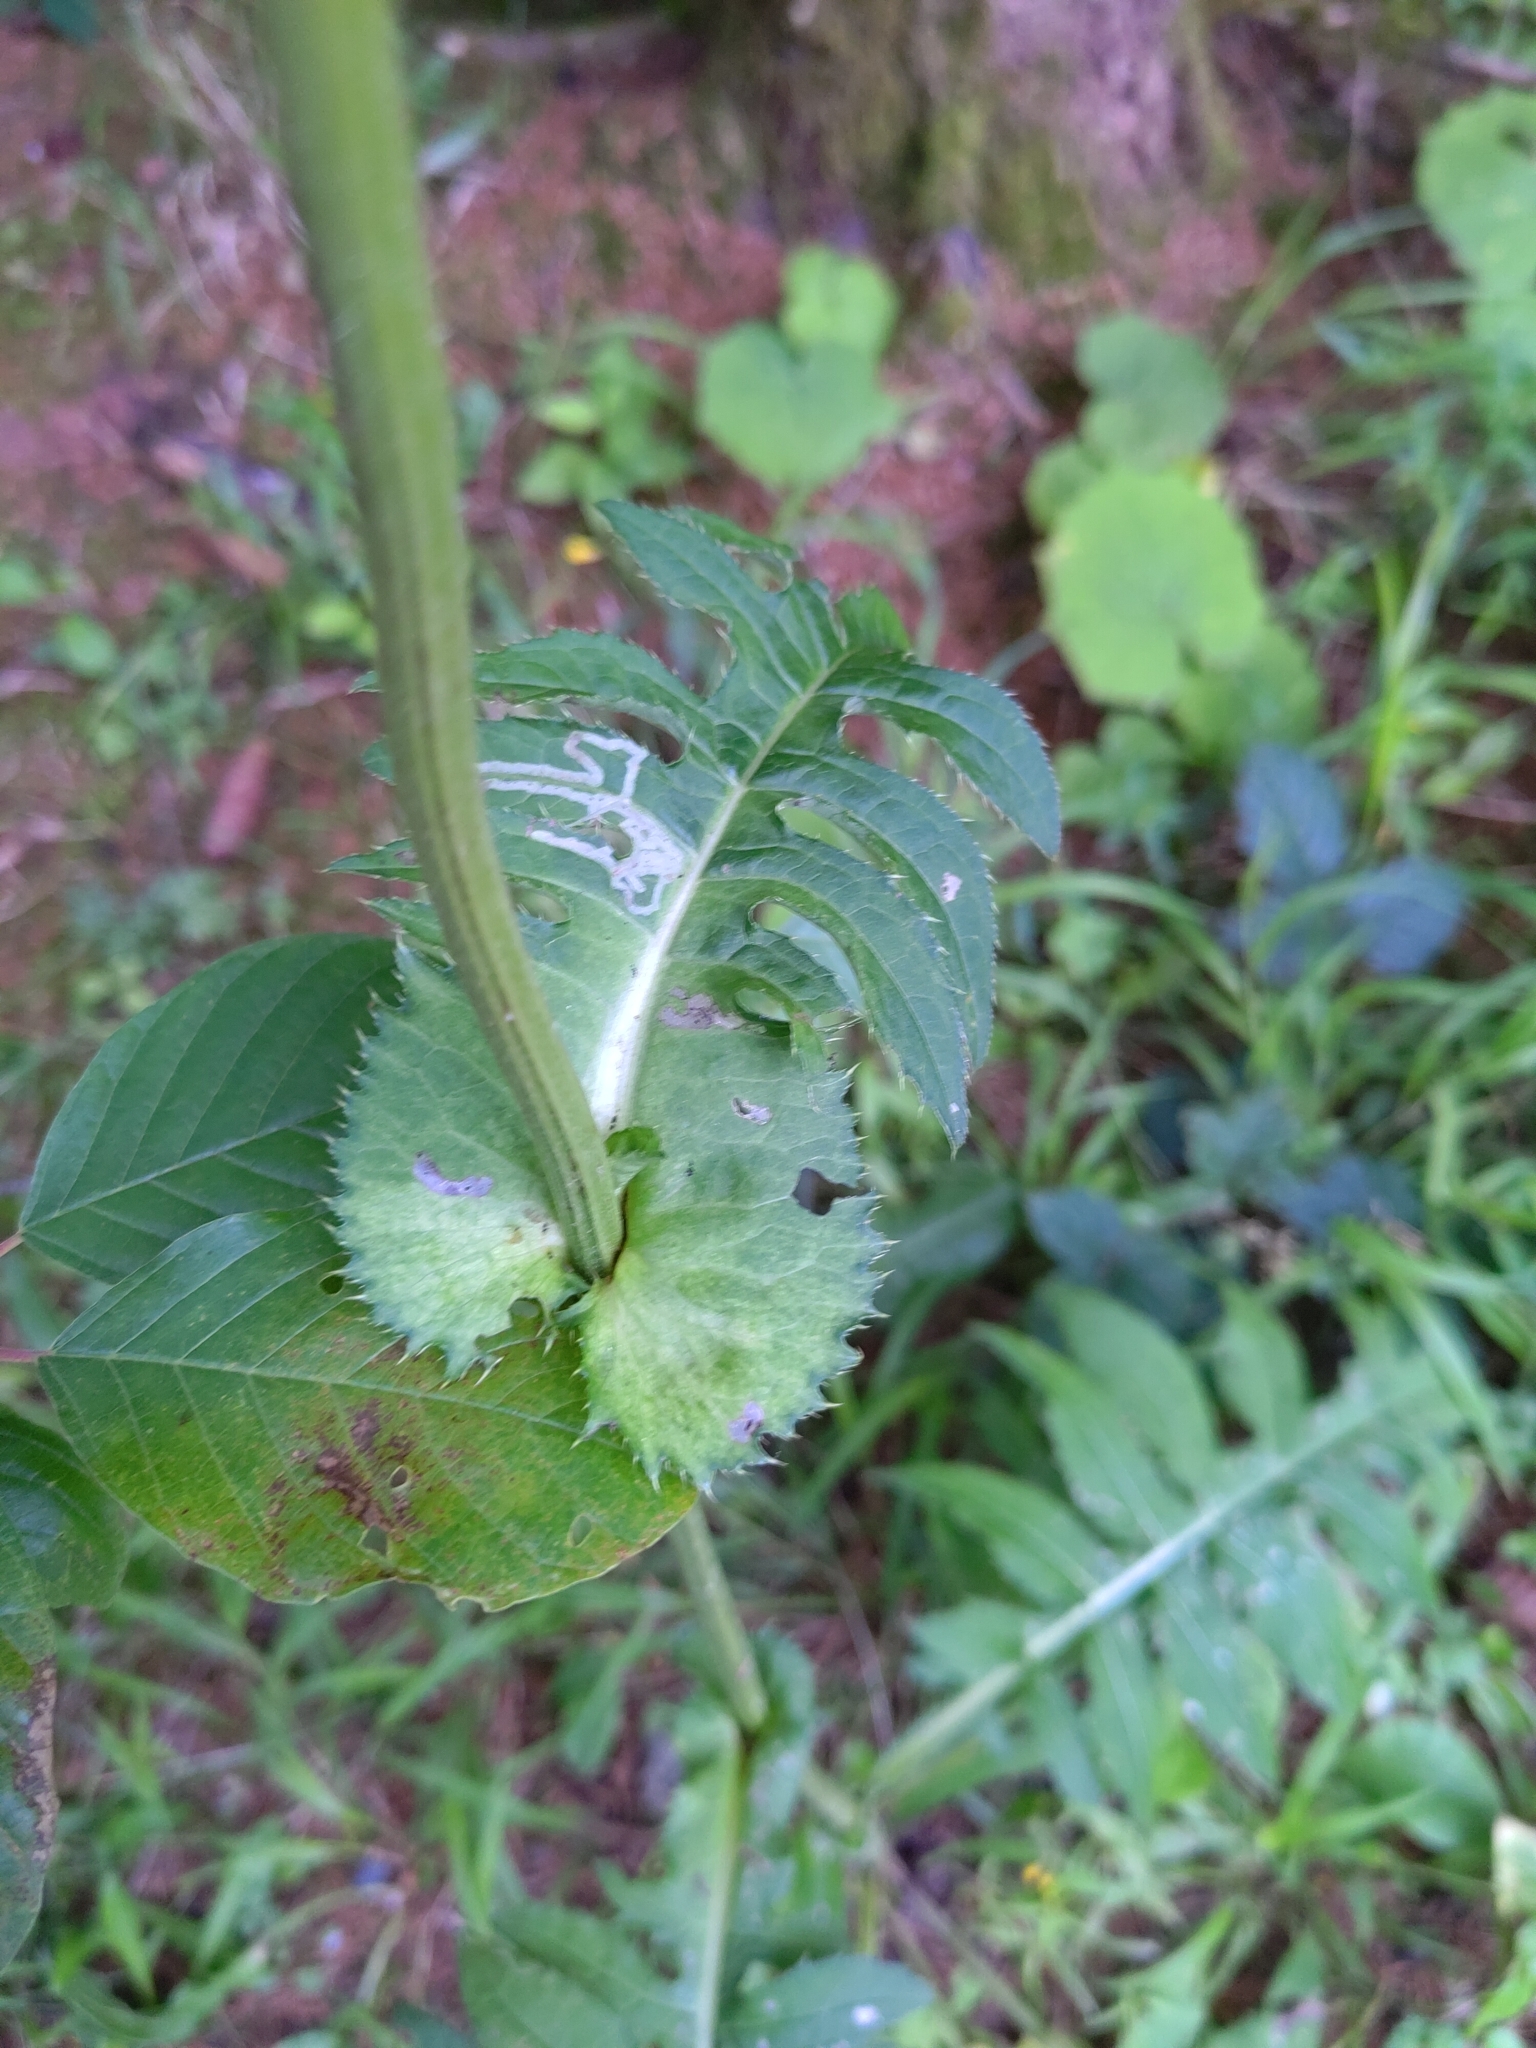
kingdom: Plantae
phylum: Tracheophyta
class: Magnoliopsida
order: Asterales
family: Asteraceae
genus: Cirsium
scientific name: Cirsium oleraceum
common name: Cabbage thistle
